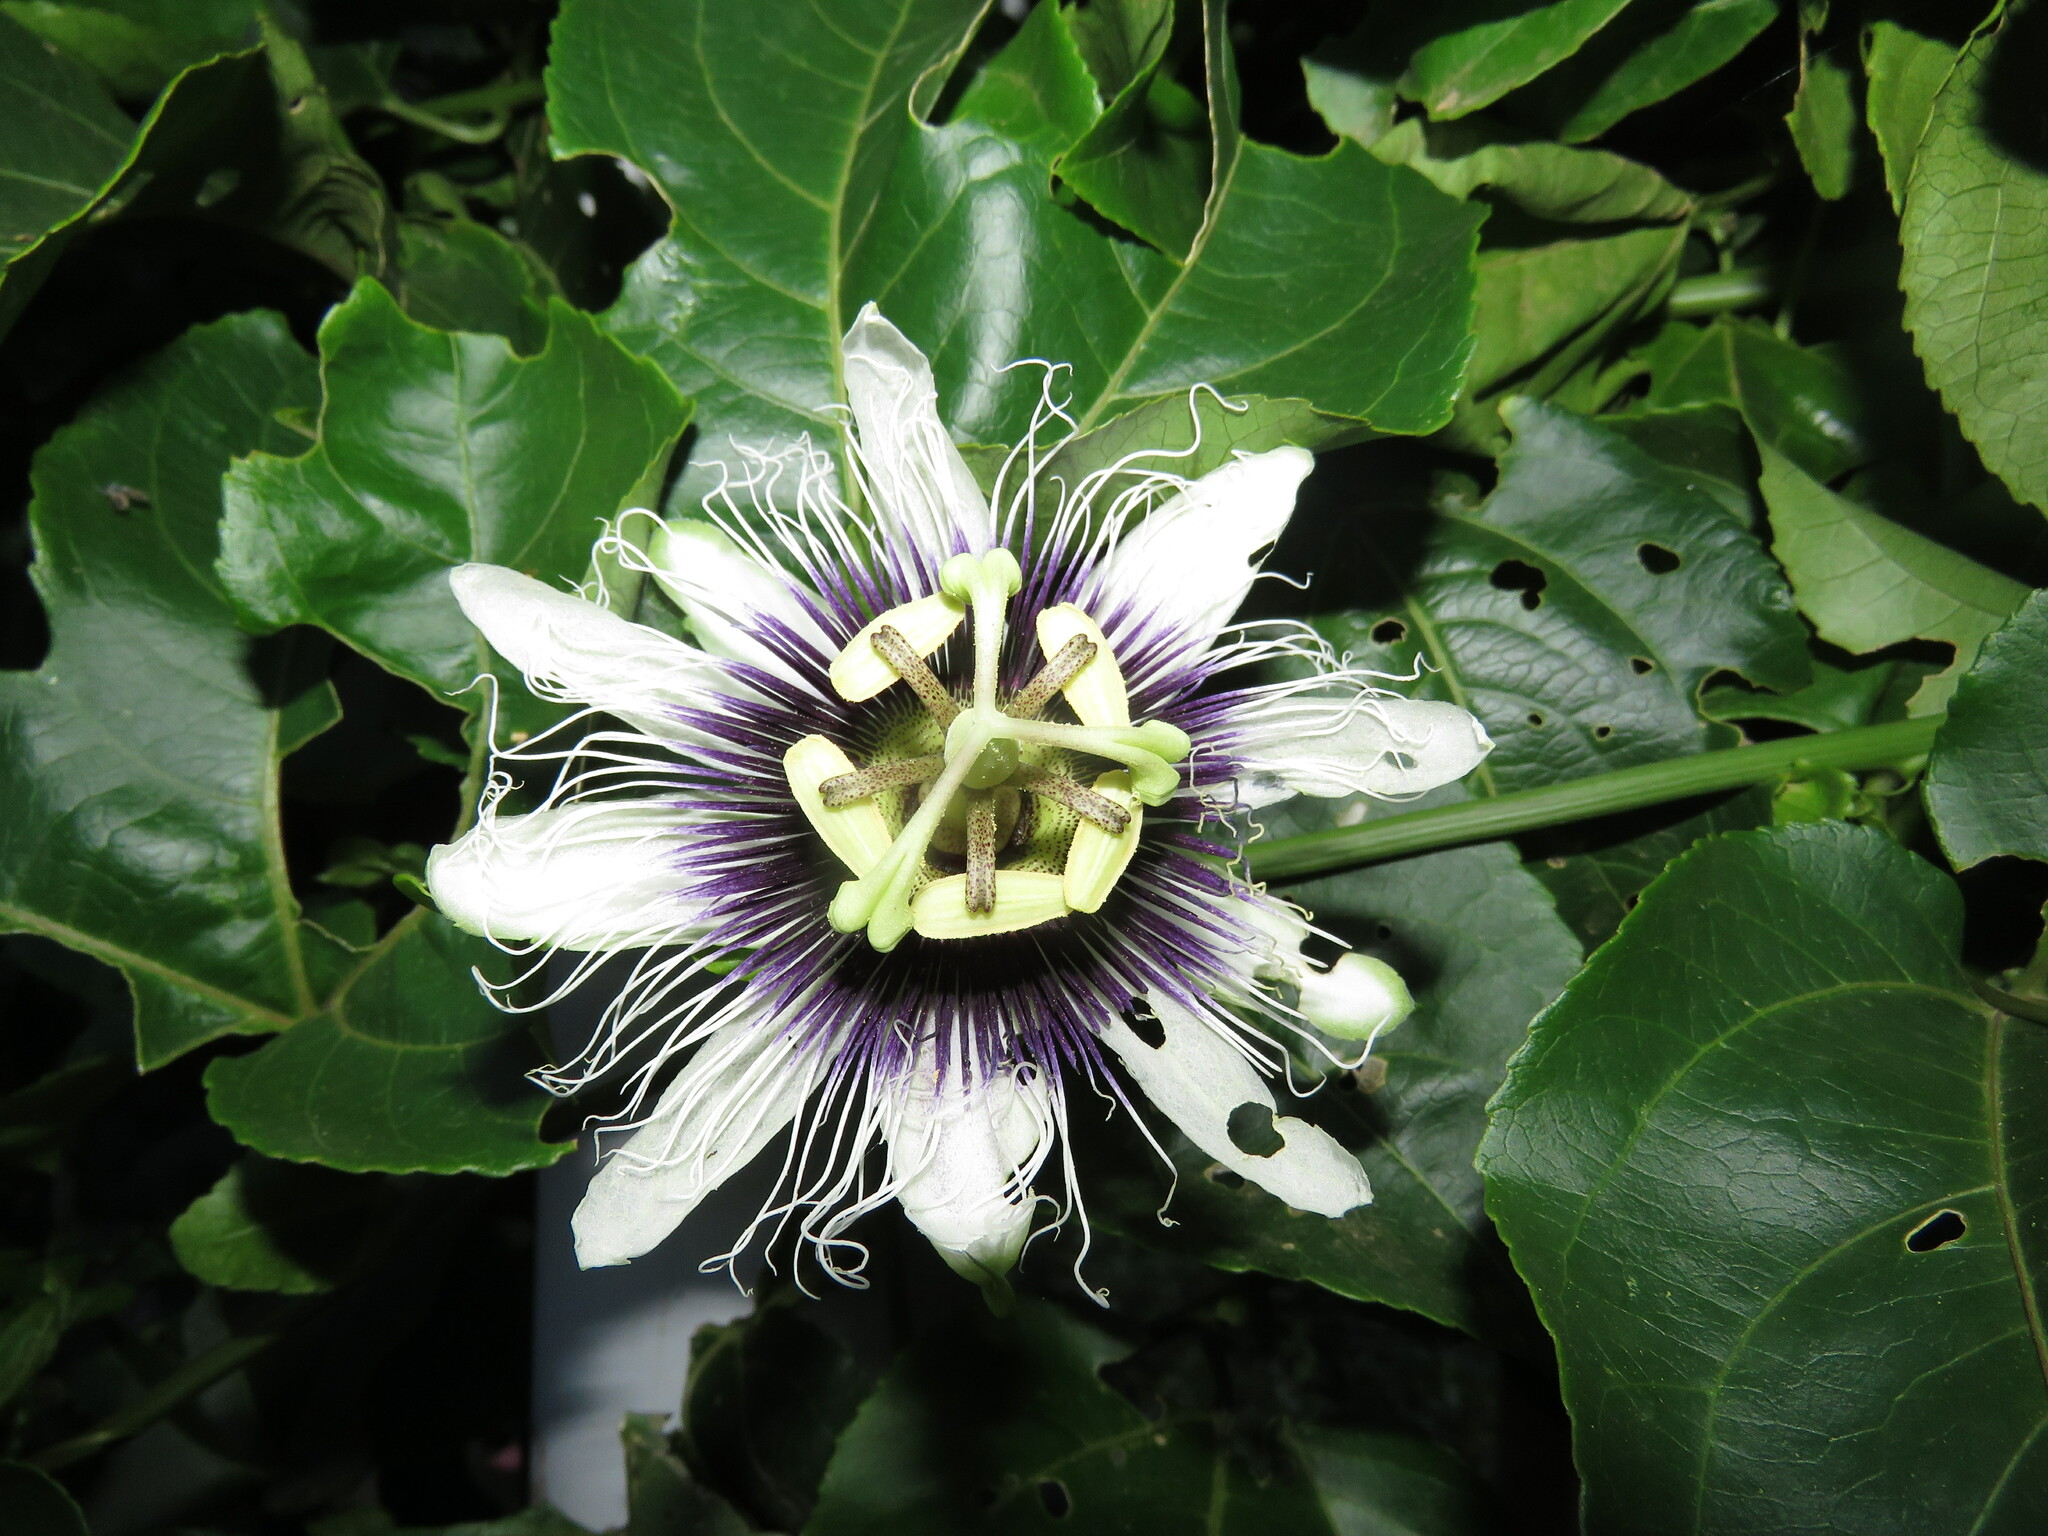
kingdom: Plantae
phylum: Tracheophyta
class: Magnoliopsida
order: Malpighiales
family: Passifloraceae
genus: Passiflora
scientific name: Passiflora edulis
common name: Purple granadilla
